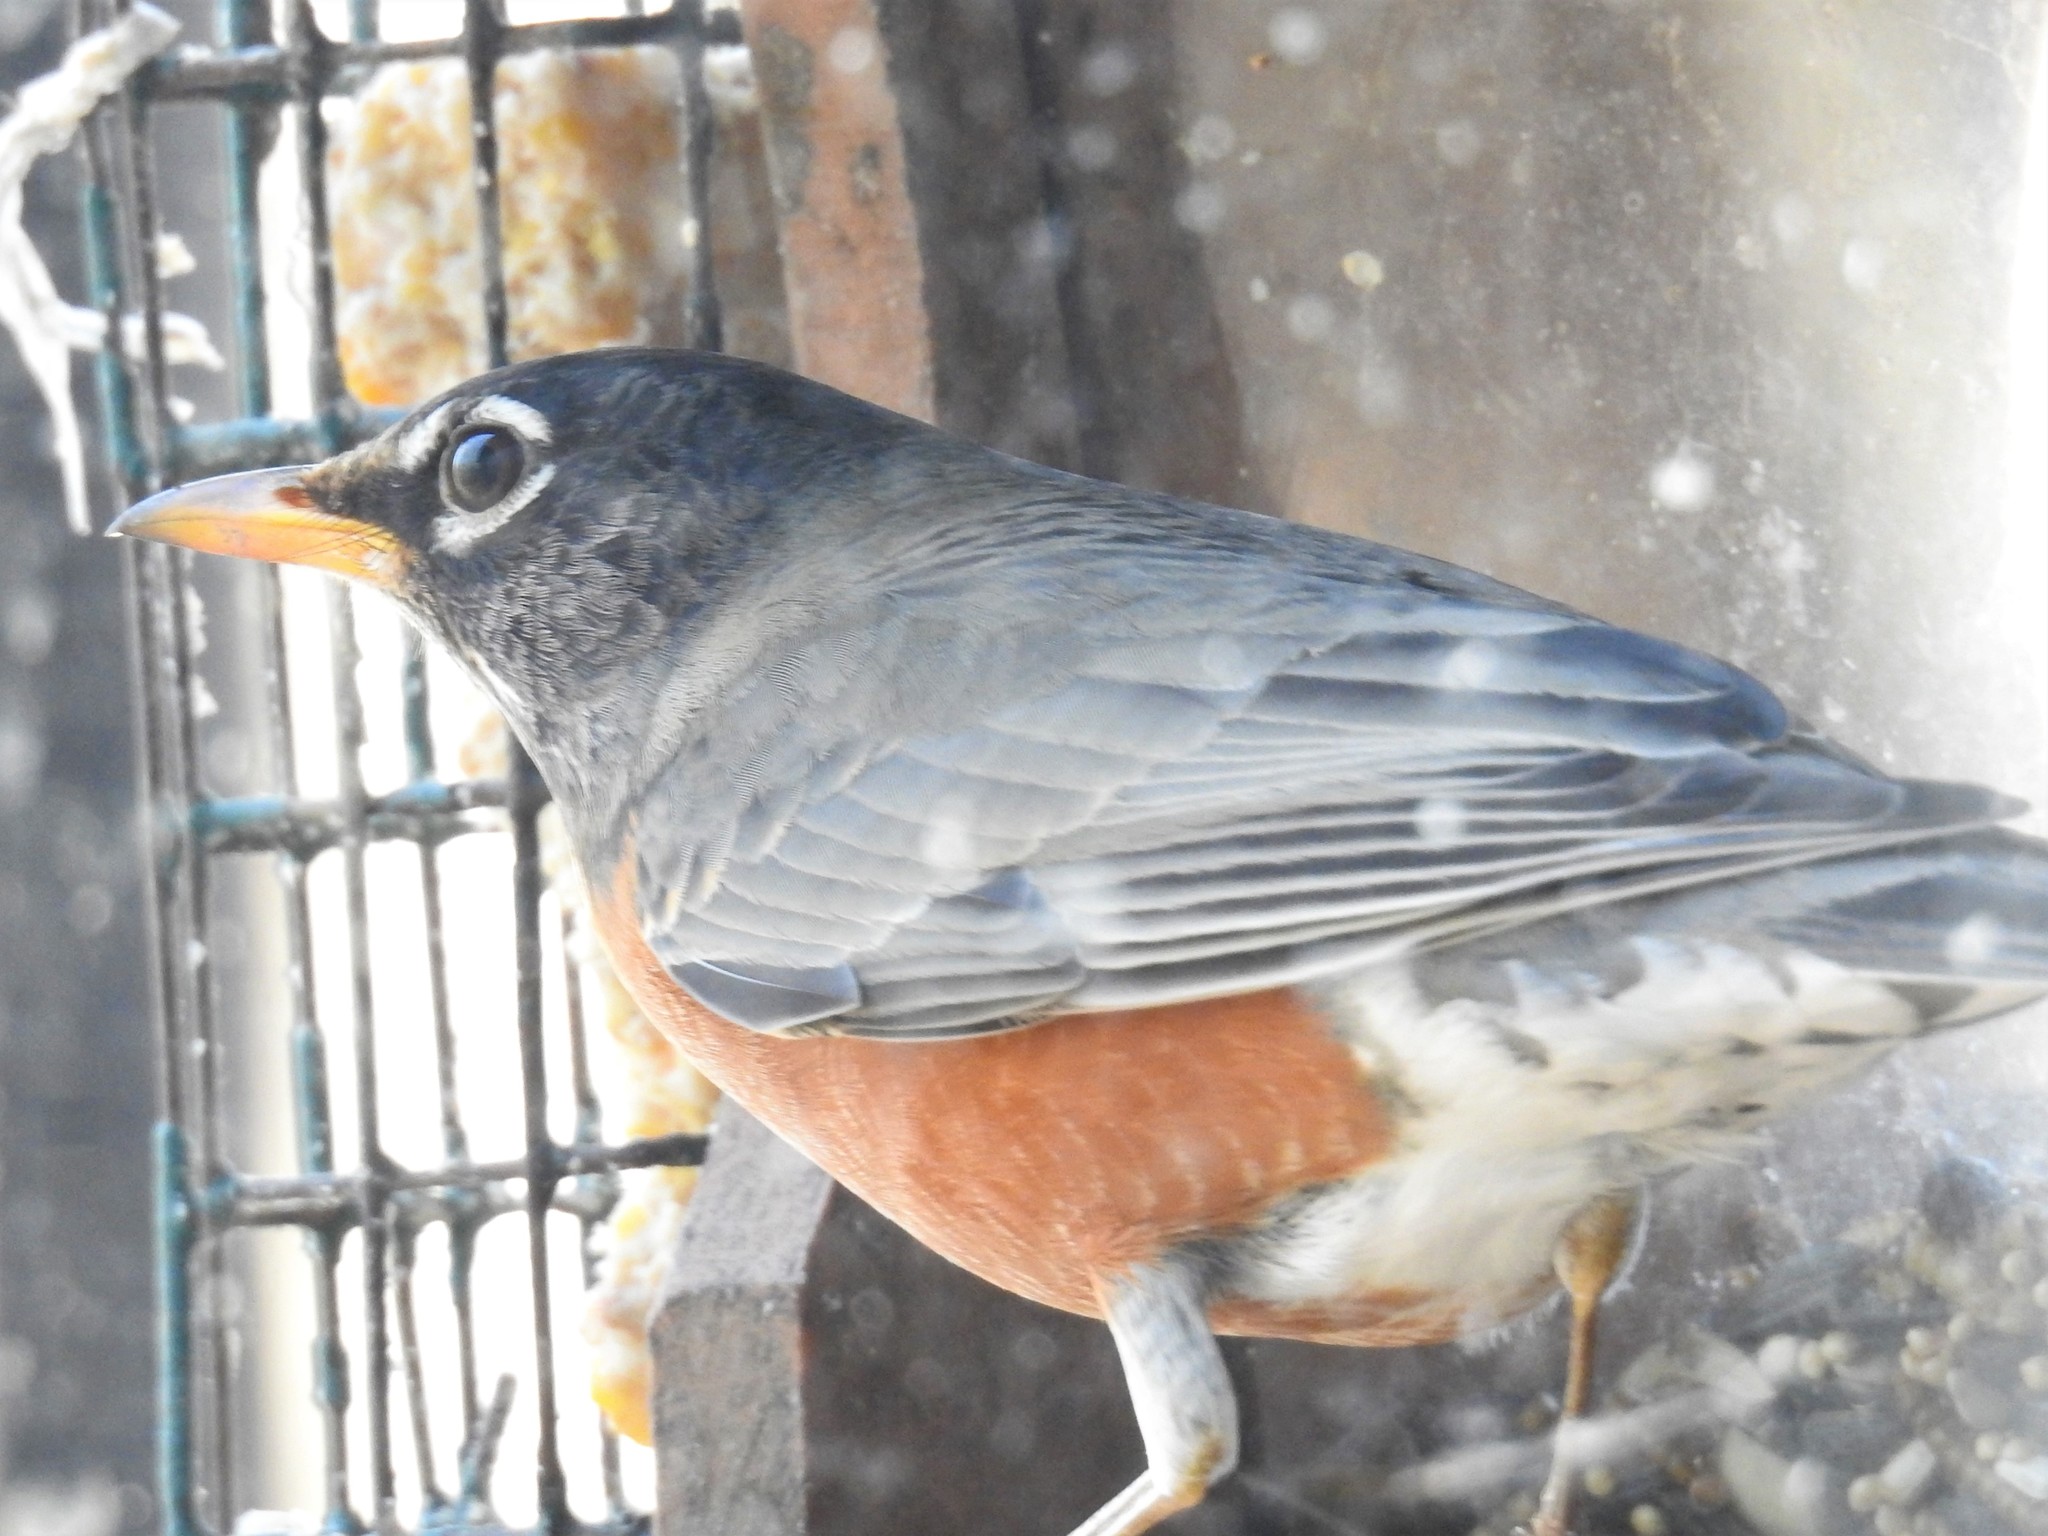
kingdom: Animalia
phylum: Chordata
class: Aves
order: Passeriformes
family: Turdidae
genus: Turdus
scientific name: Turdus migratorius
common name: American robin
